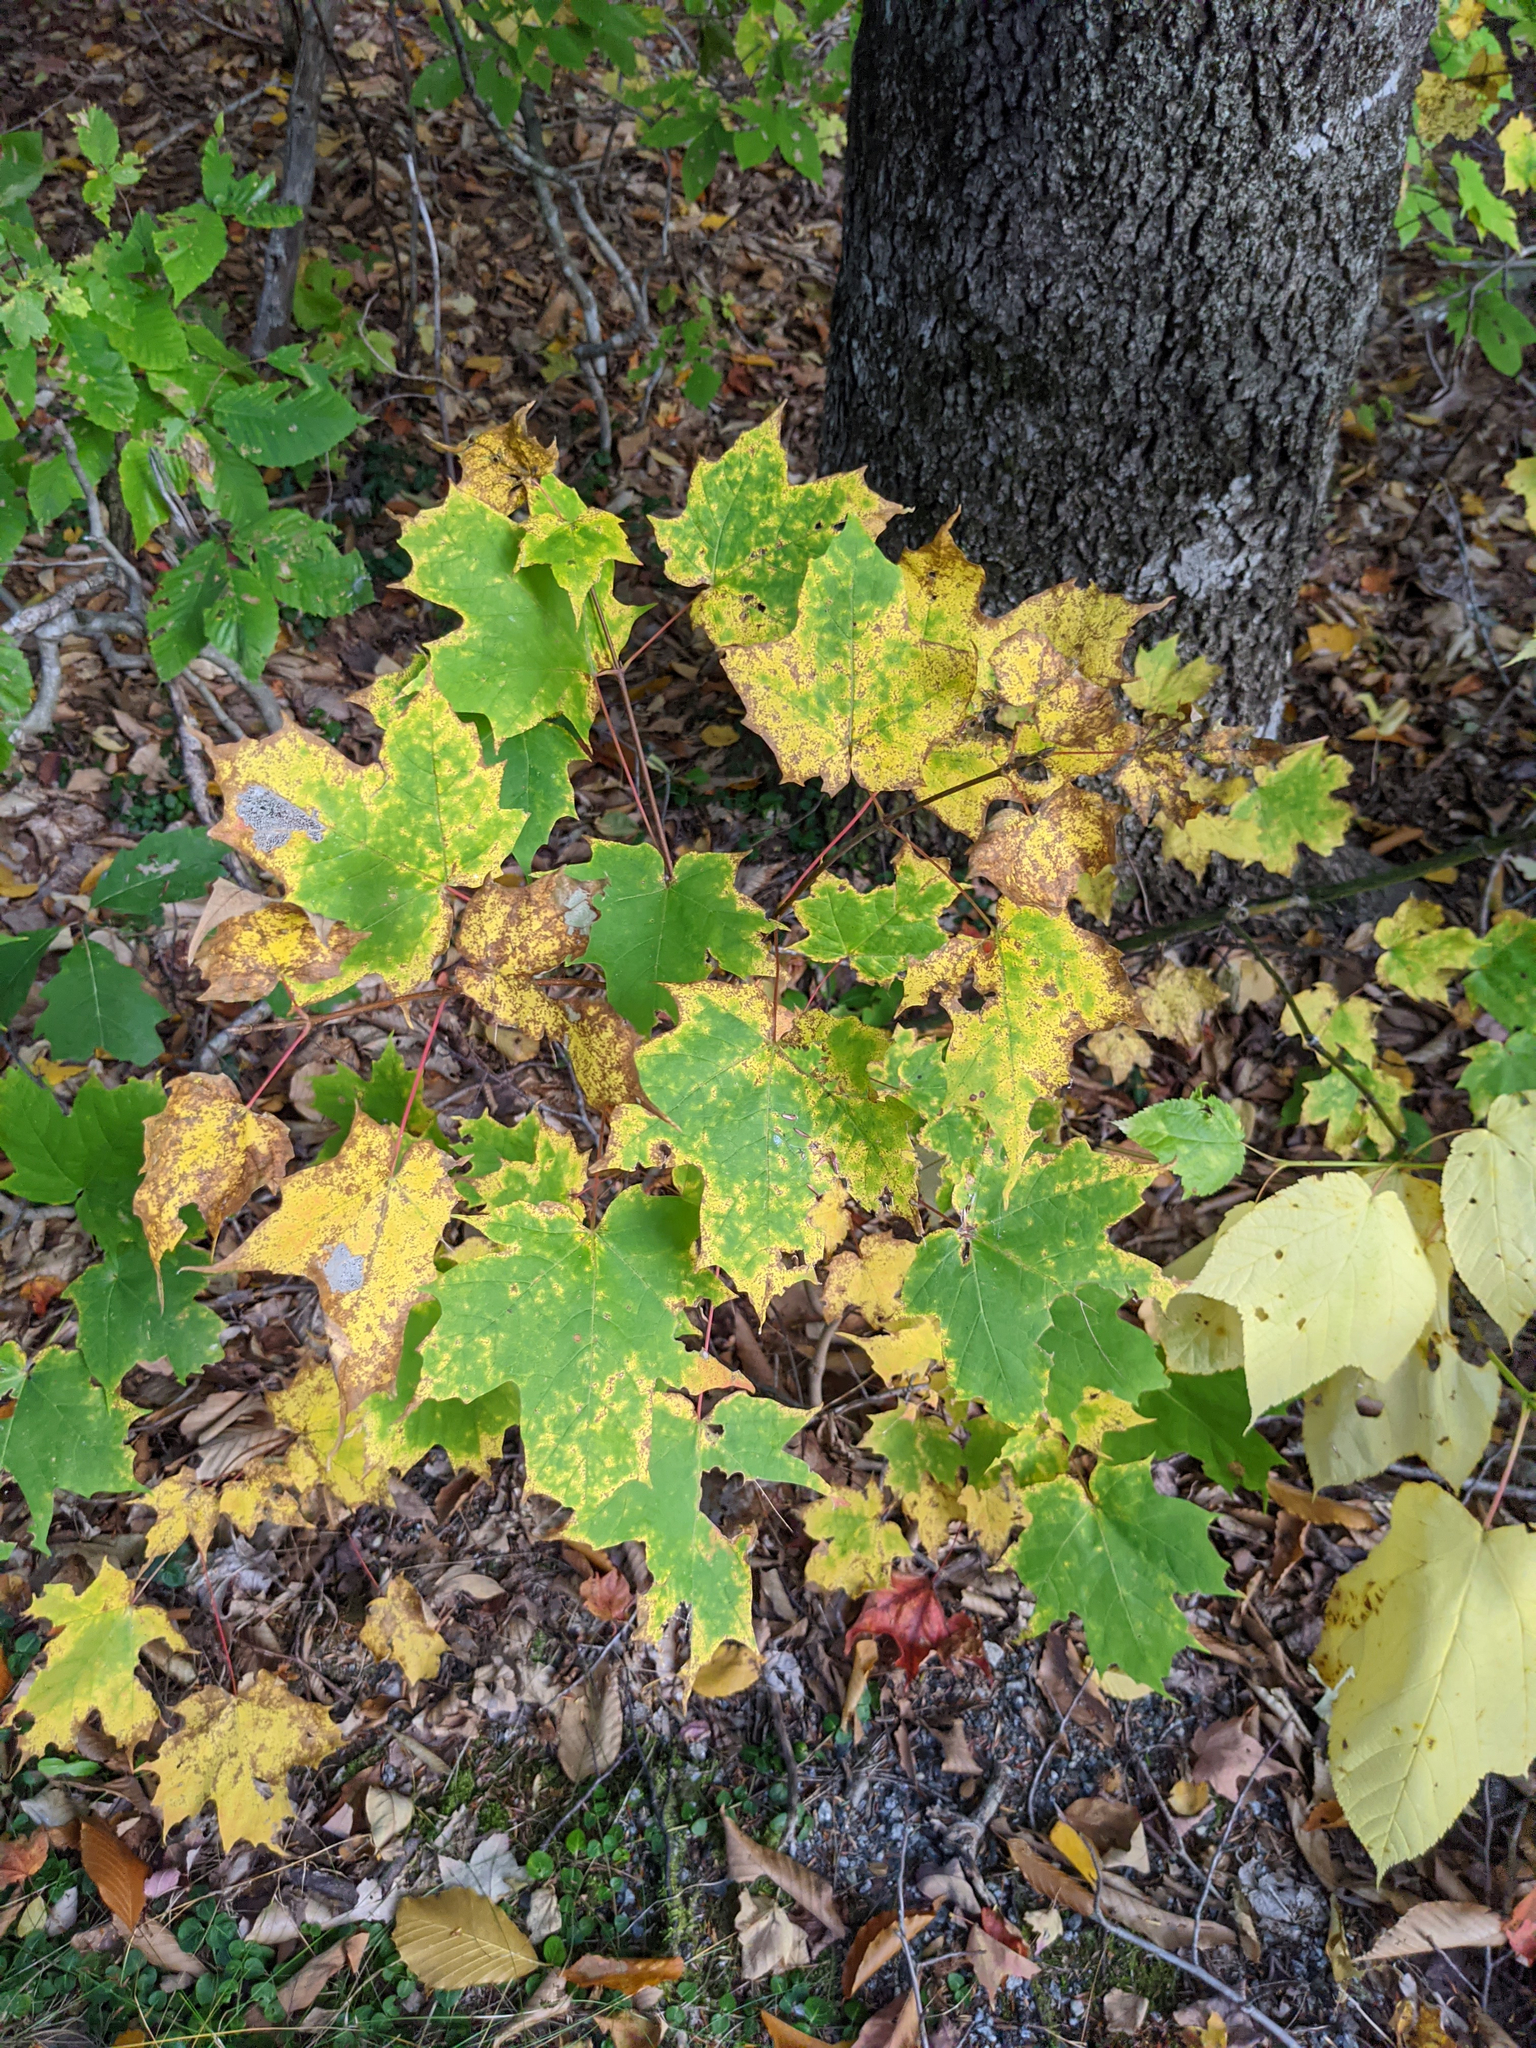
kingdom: Plantae
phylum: Tracheophyta
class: Magnoliopsida
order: Sapindales
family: Sapindaceae
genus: Acer
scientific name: Acer saccharum
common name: Sugar maple
